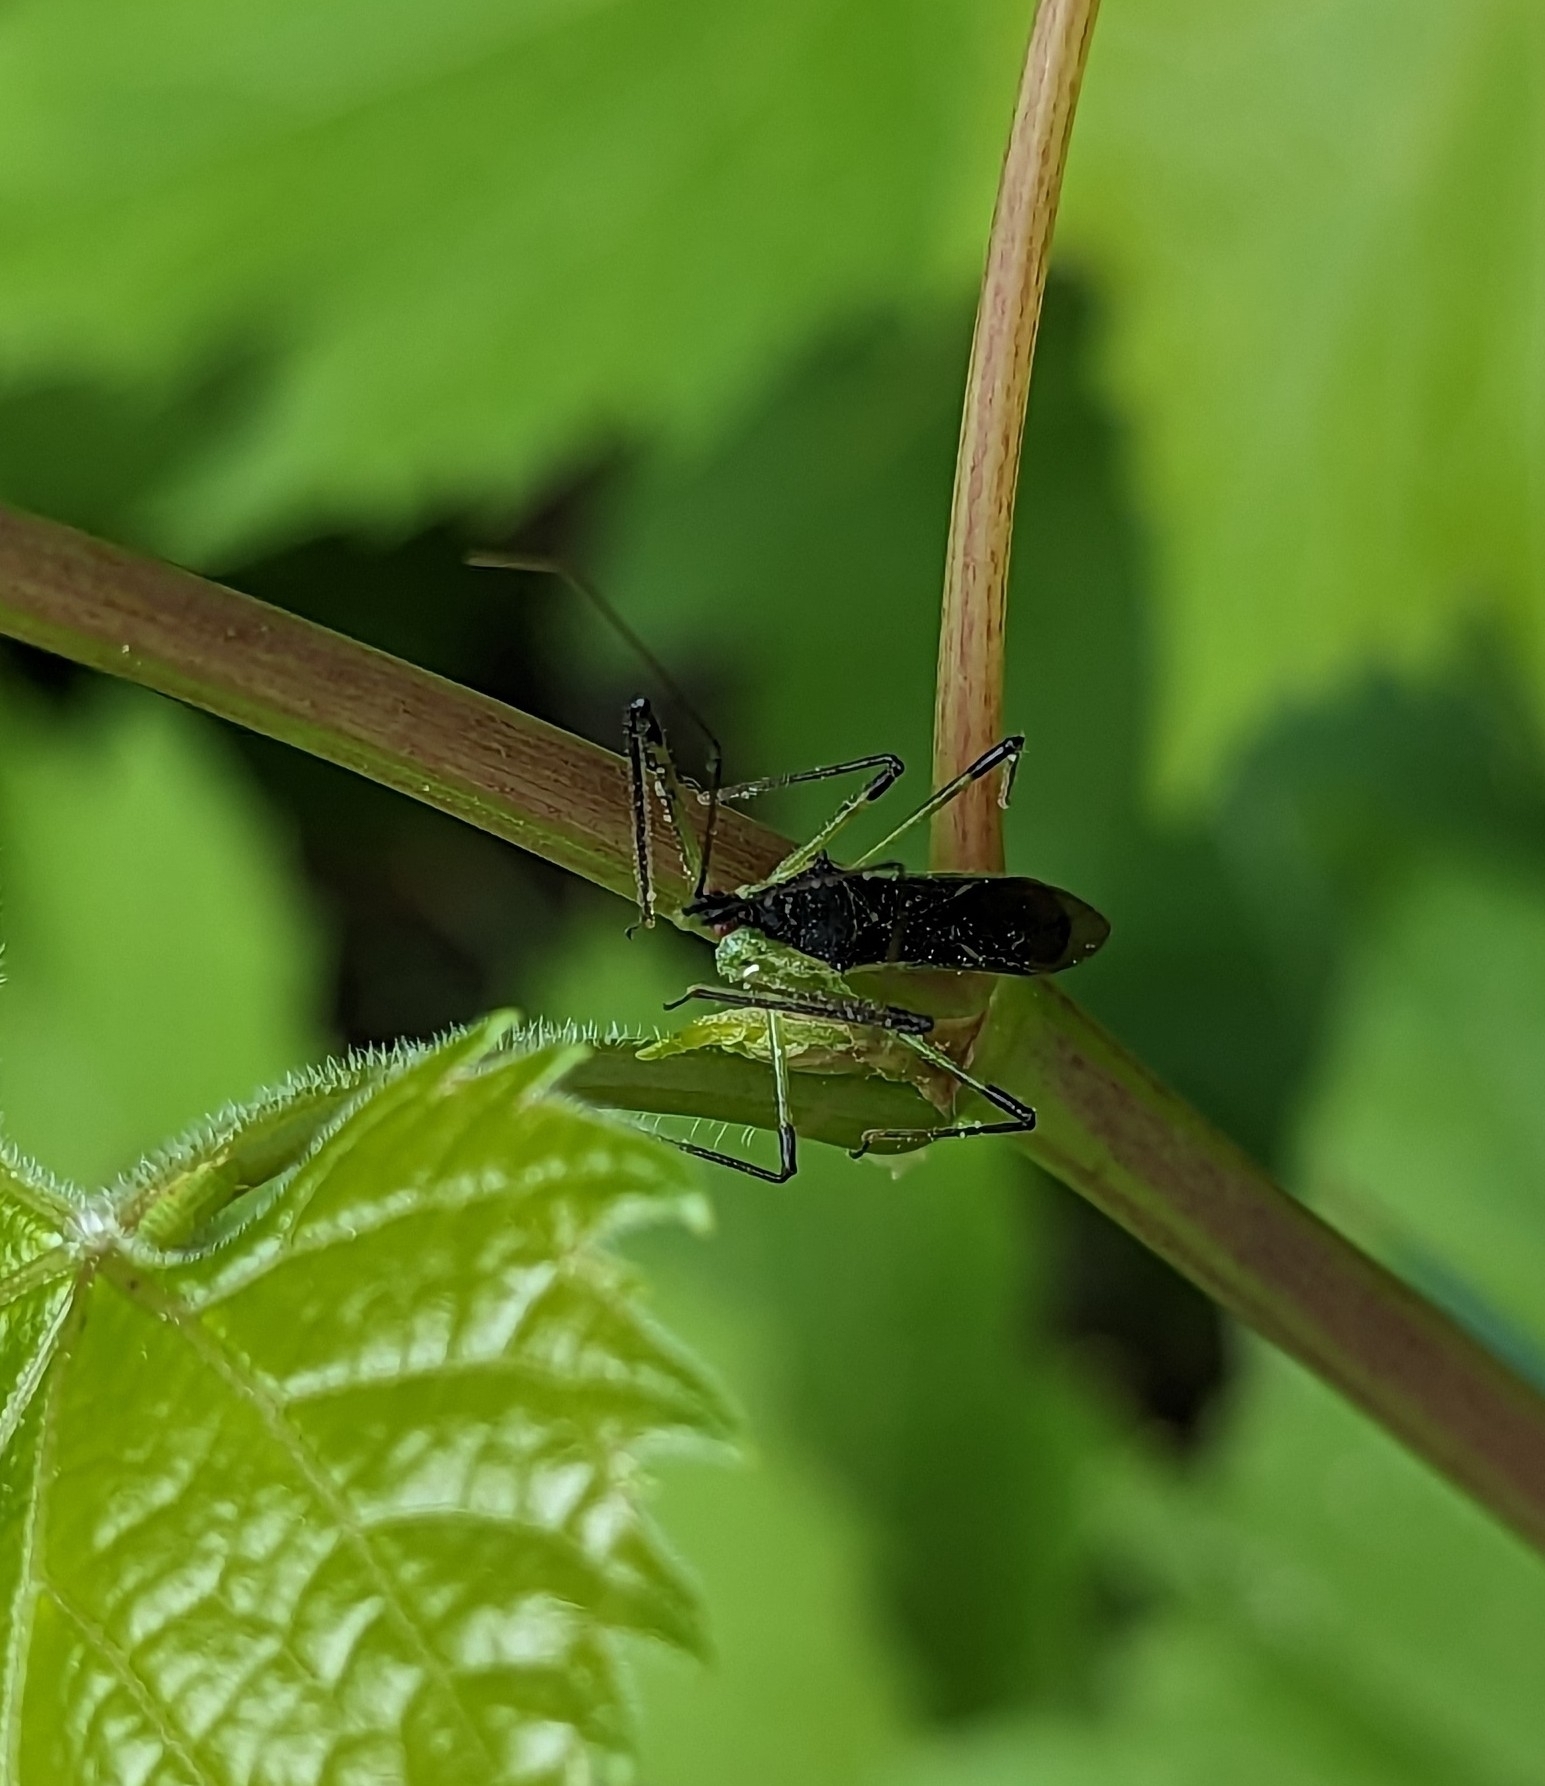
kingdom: Animalia
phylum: Arthropoda
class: Insecta
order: Hemiptera
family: Reduviidae
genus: Zelus
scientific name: Zelus luridus
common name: Pale green assassin bug
